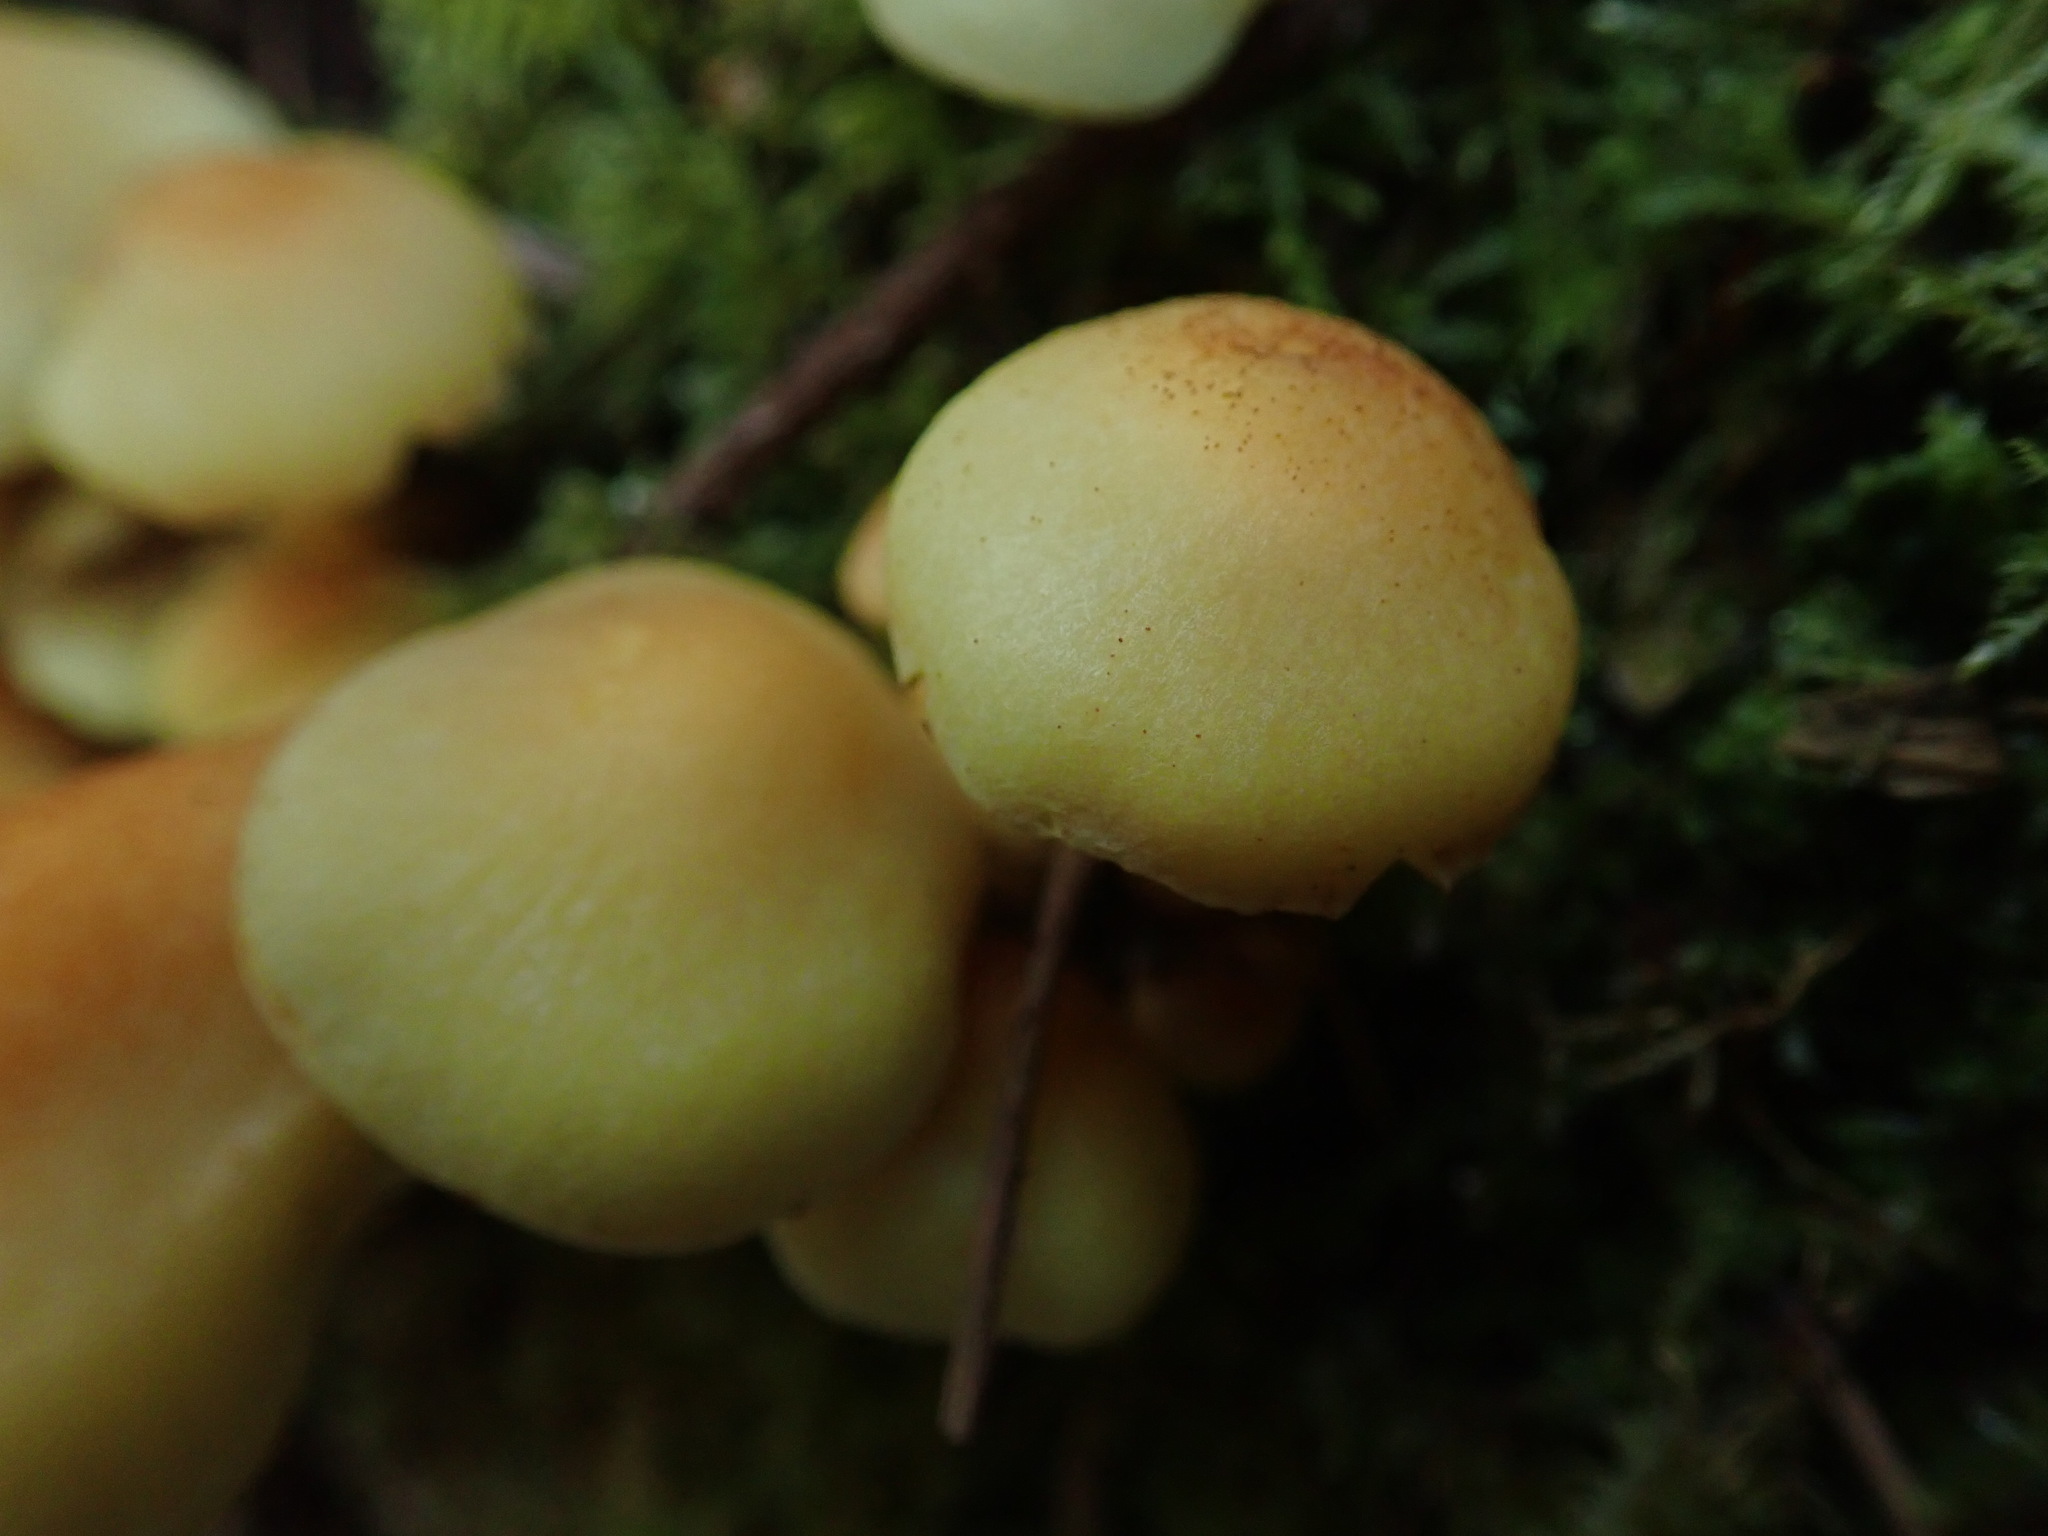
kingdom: Fungi
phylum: Basidiomycota
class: Agaricomycetes
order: Agaricales
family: Strophariaceae
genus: Hypholoma
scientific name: Hypholoma fasciculare
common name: Sulphur tuft
